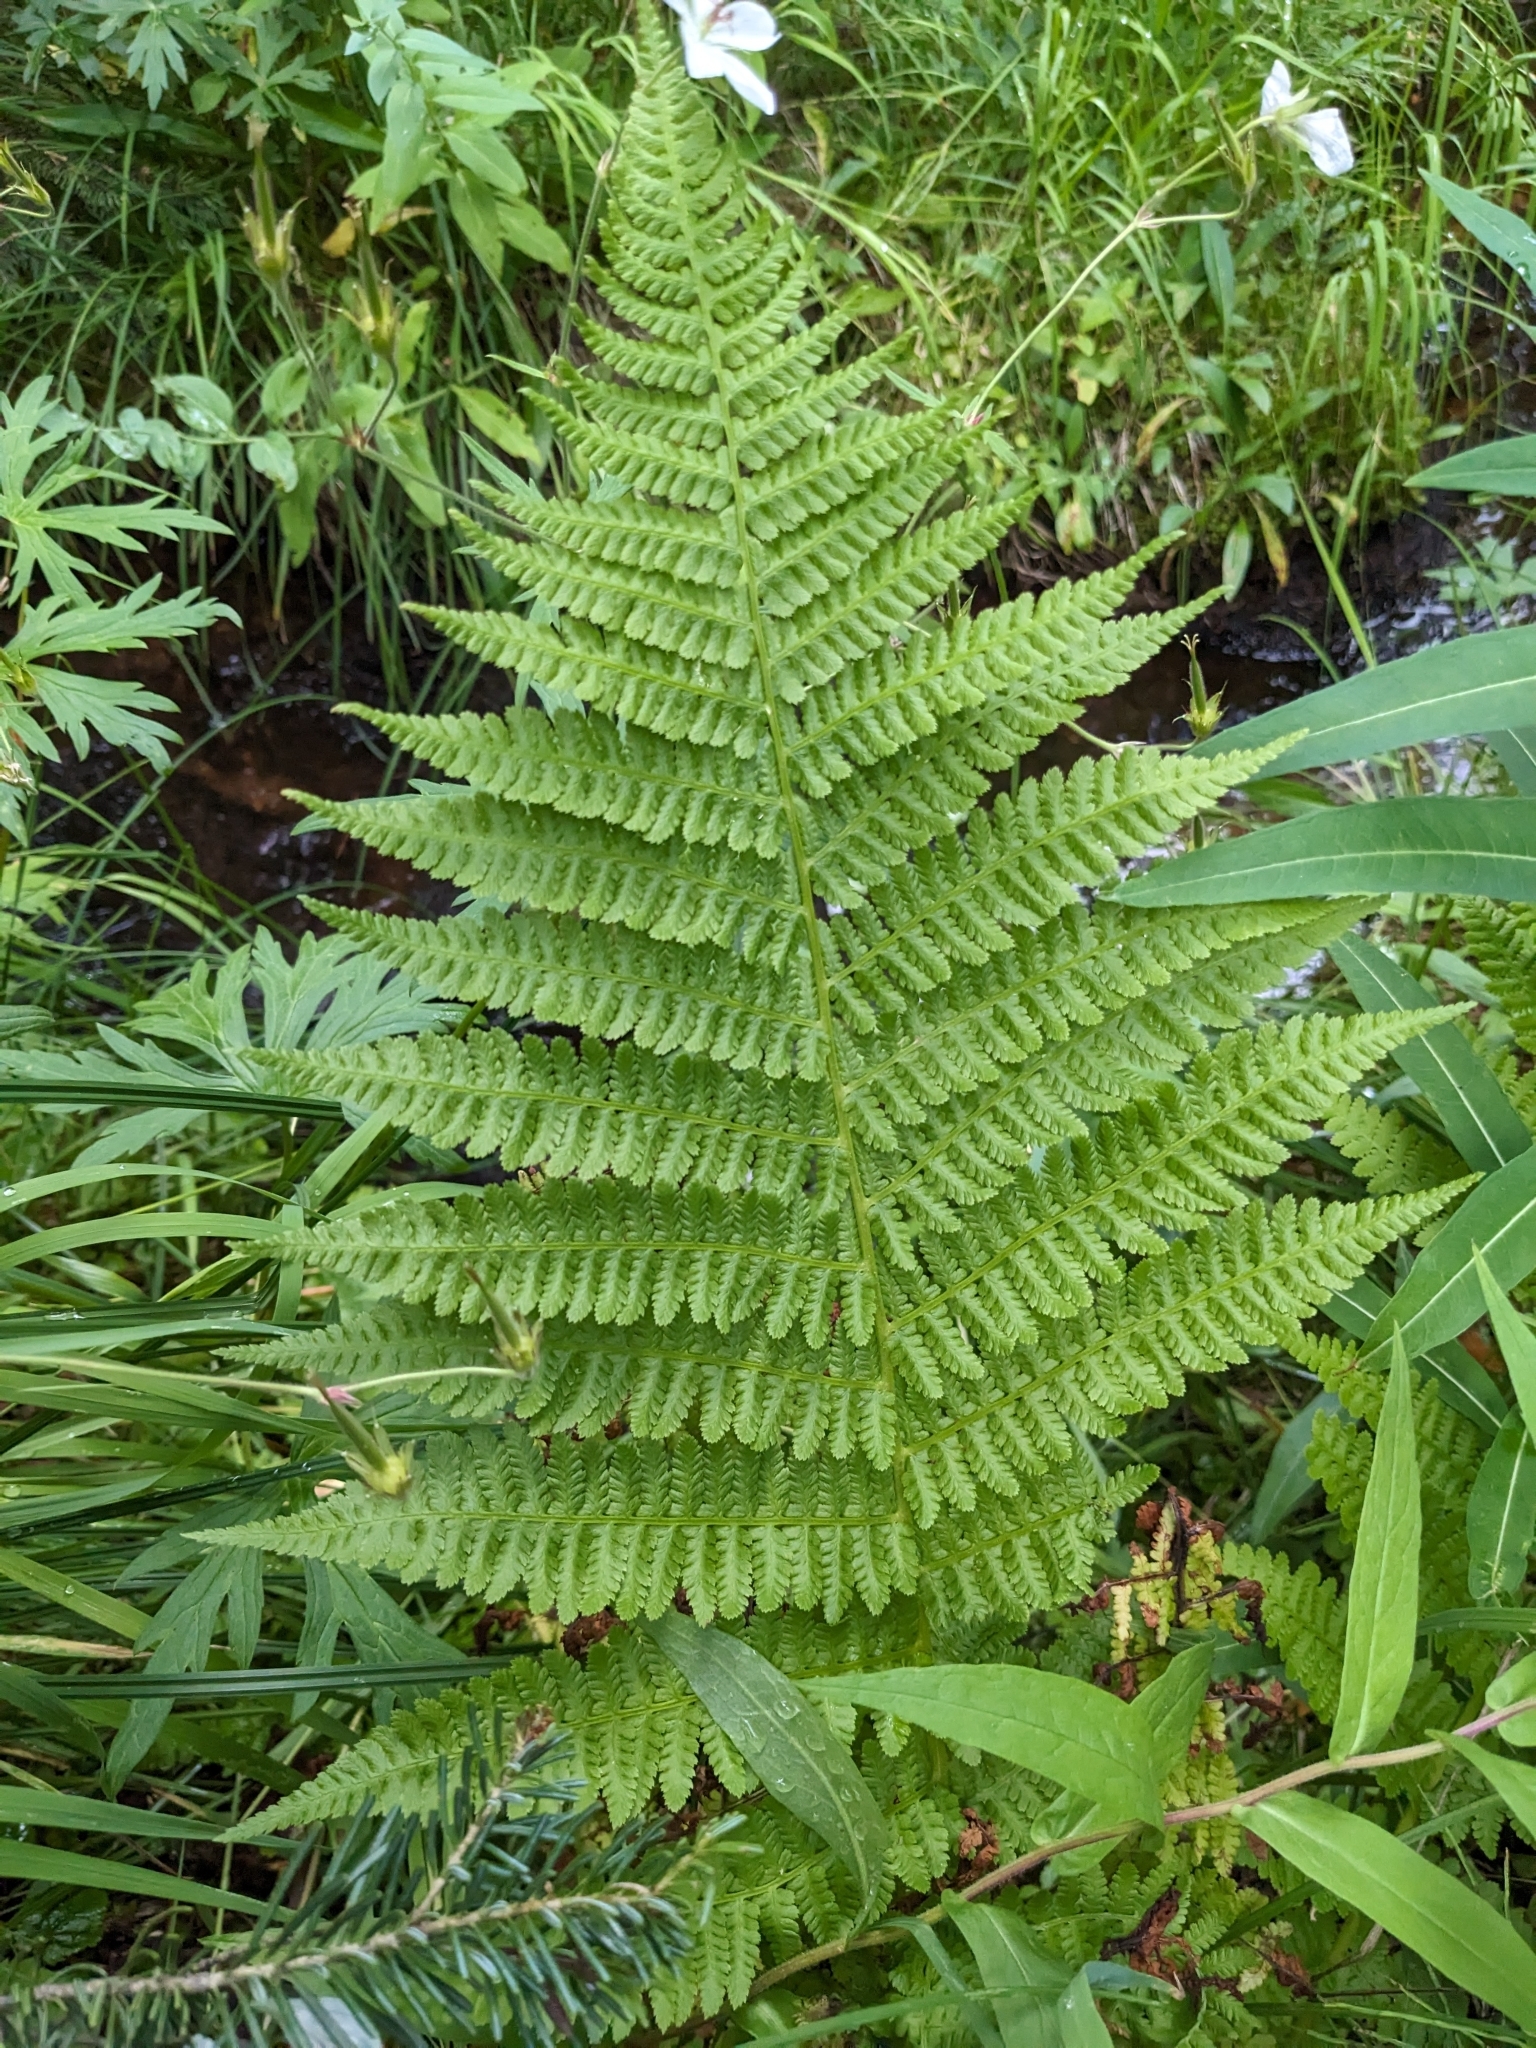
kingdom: Plantae
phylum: Tracheophyta
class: Polypodiopsida
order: Polypodiales
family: Athyriaceae
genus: Athyrium
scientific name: Athyrium cyclosorum
